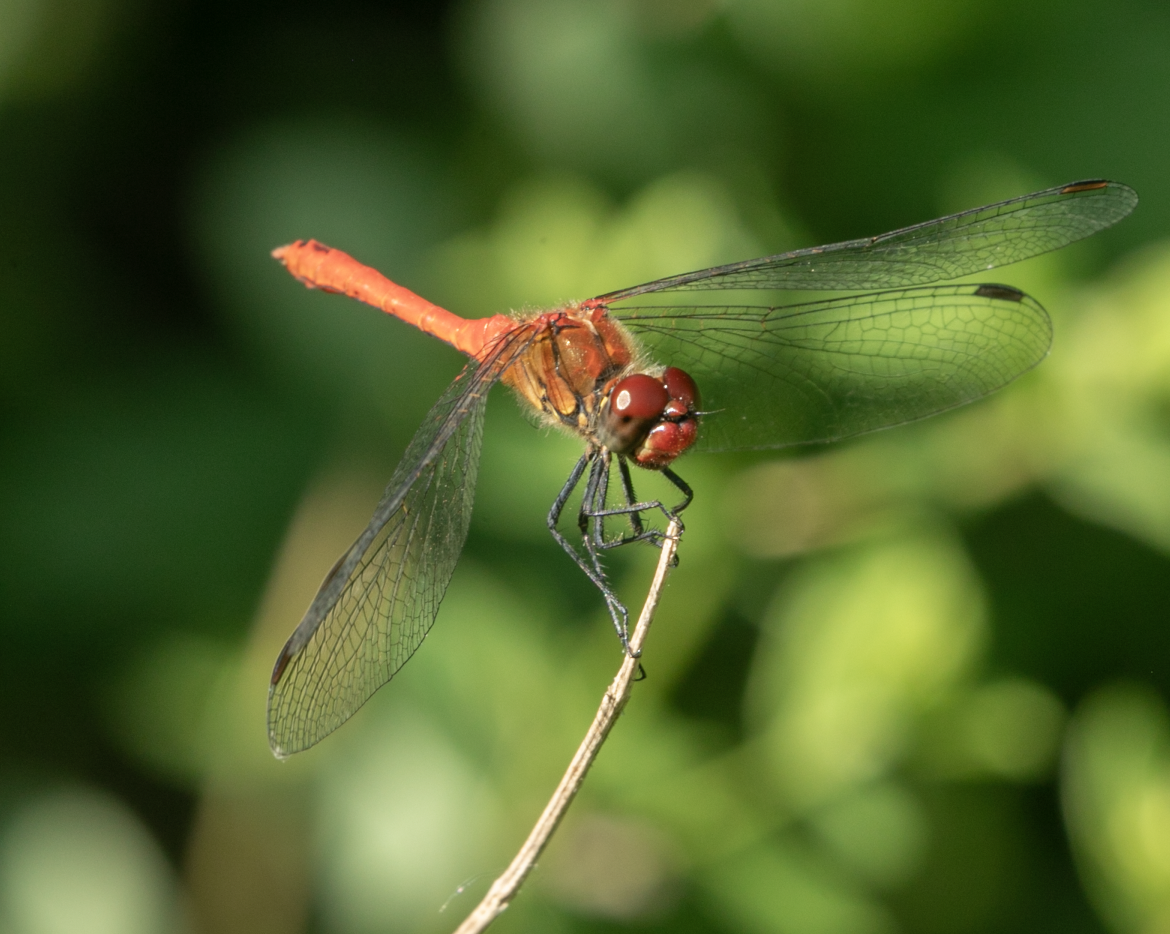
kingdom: Animalia
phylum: Arthropoda
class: Insecta
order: Odonata
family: Libellulidae
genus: Sympetrum
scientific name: Sympetrum sanguineum
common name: Ruddy darter
